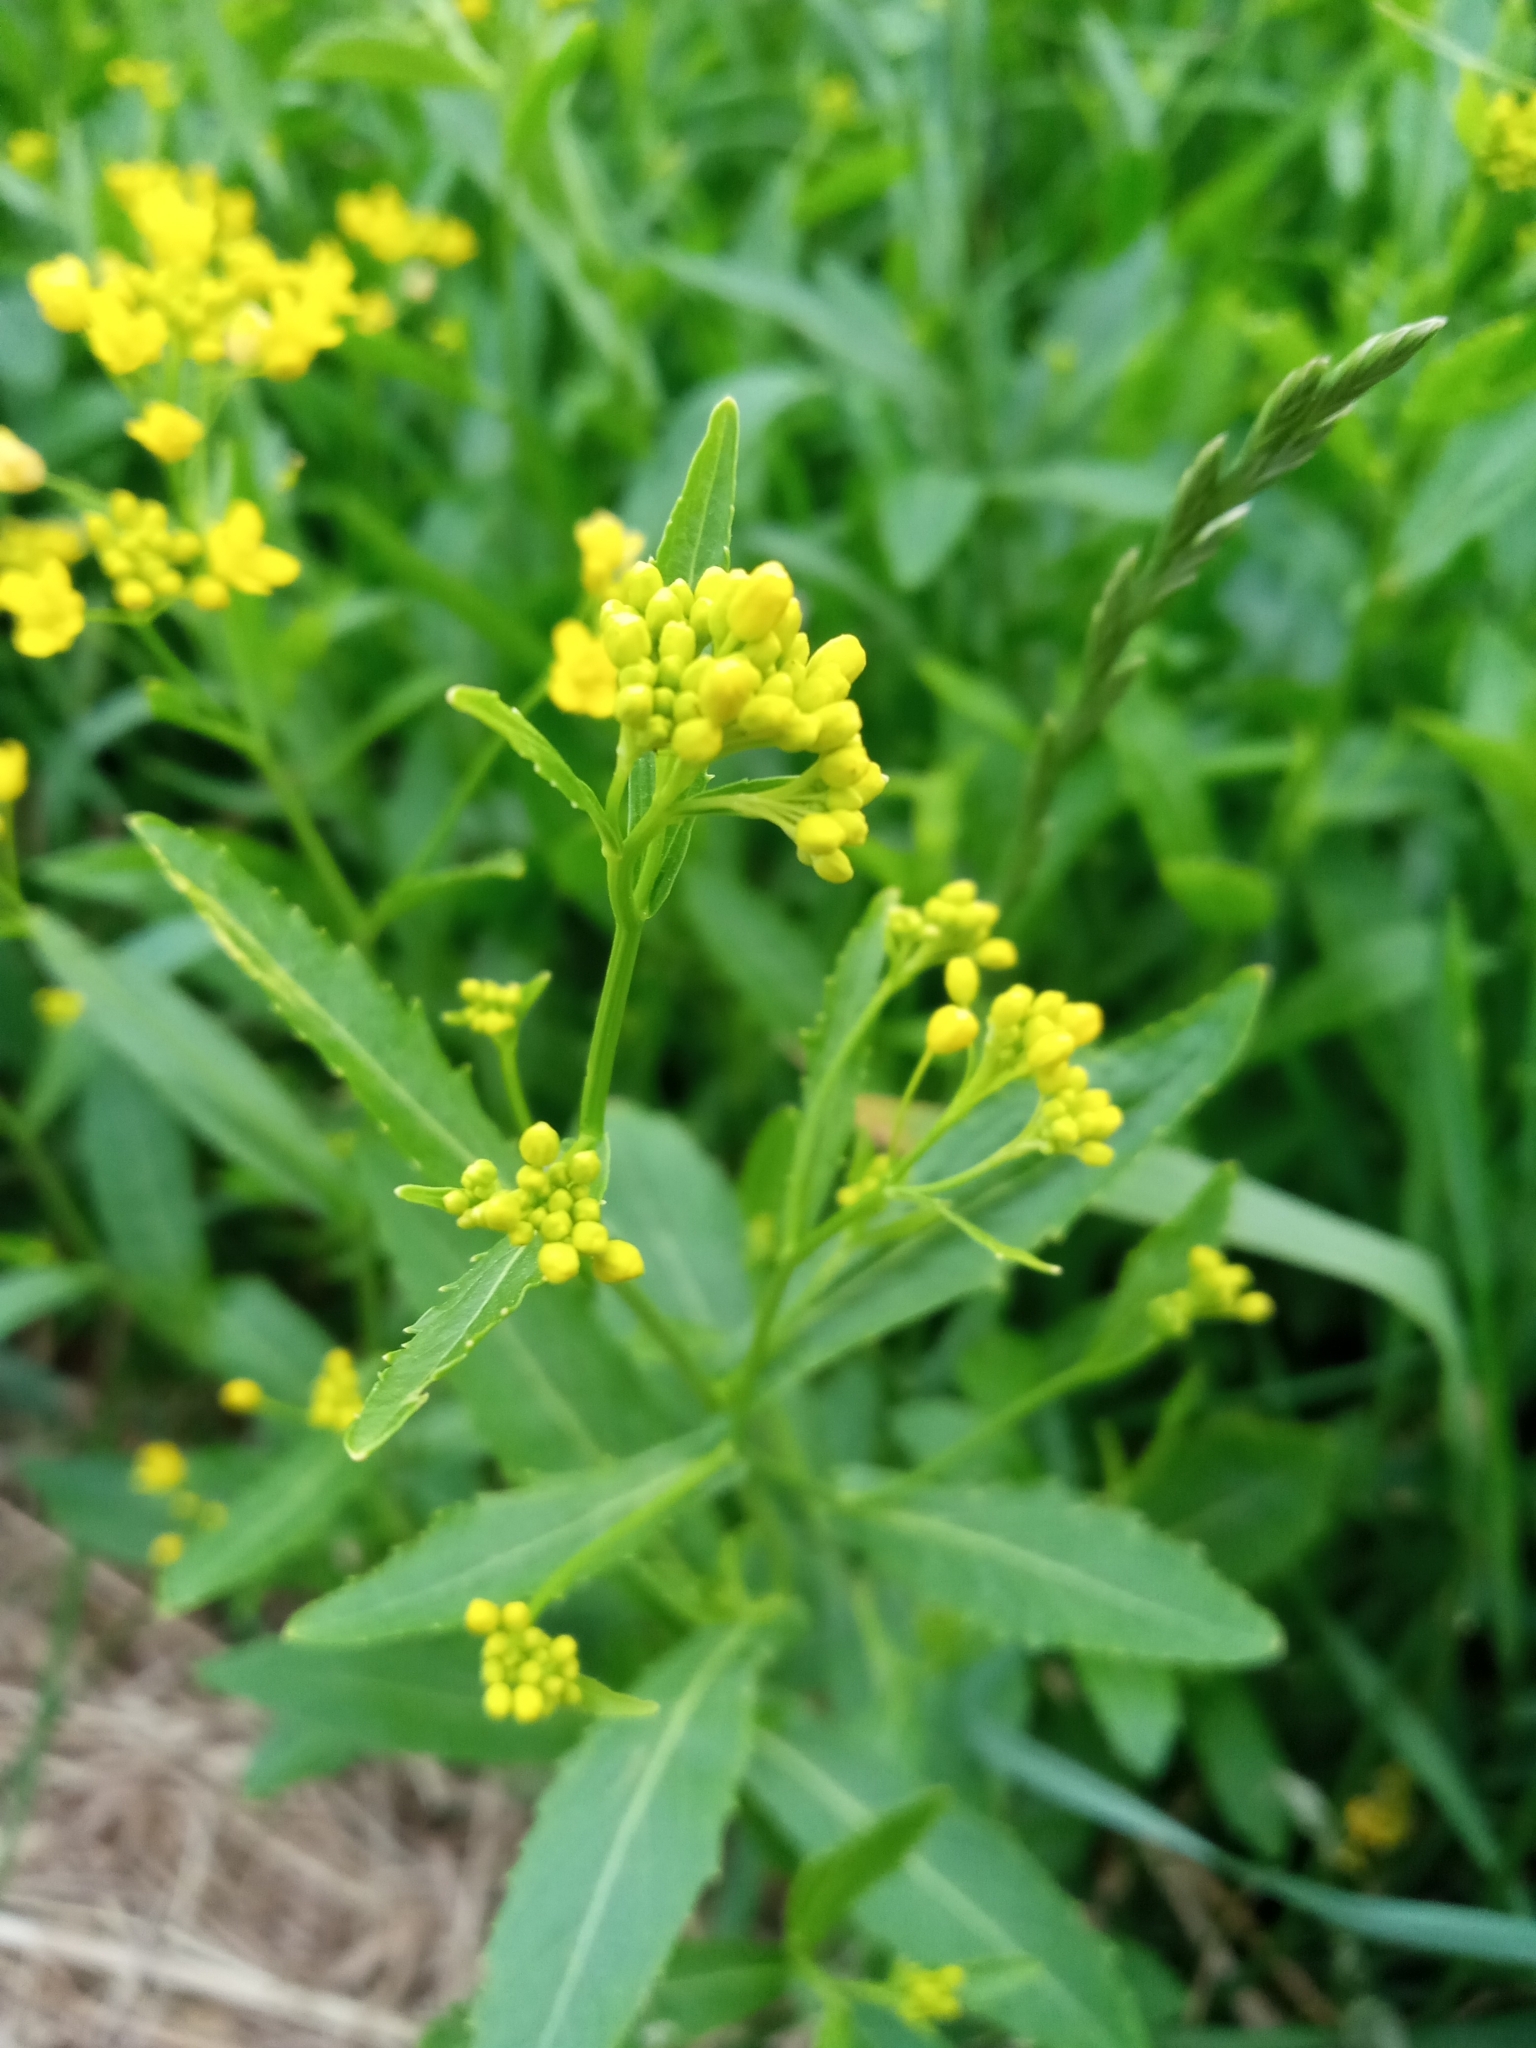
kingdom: Plantae
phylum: Tracheophyta
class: Magnoliopsida
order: Brassicales
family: Brassicaceae
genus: Rorippa
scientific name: Rorippa austriaca
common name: Austrian yellow-cress
